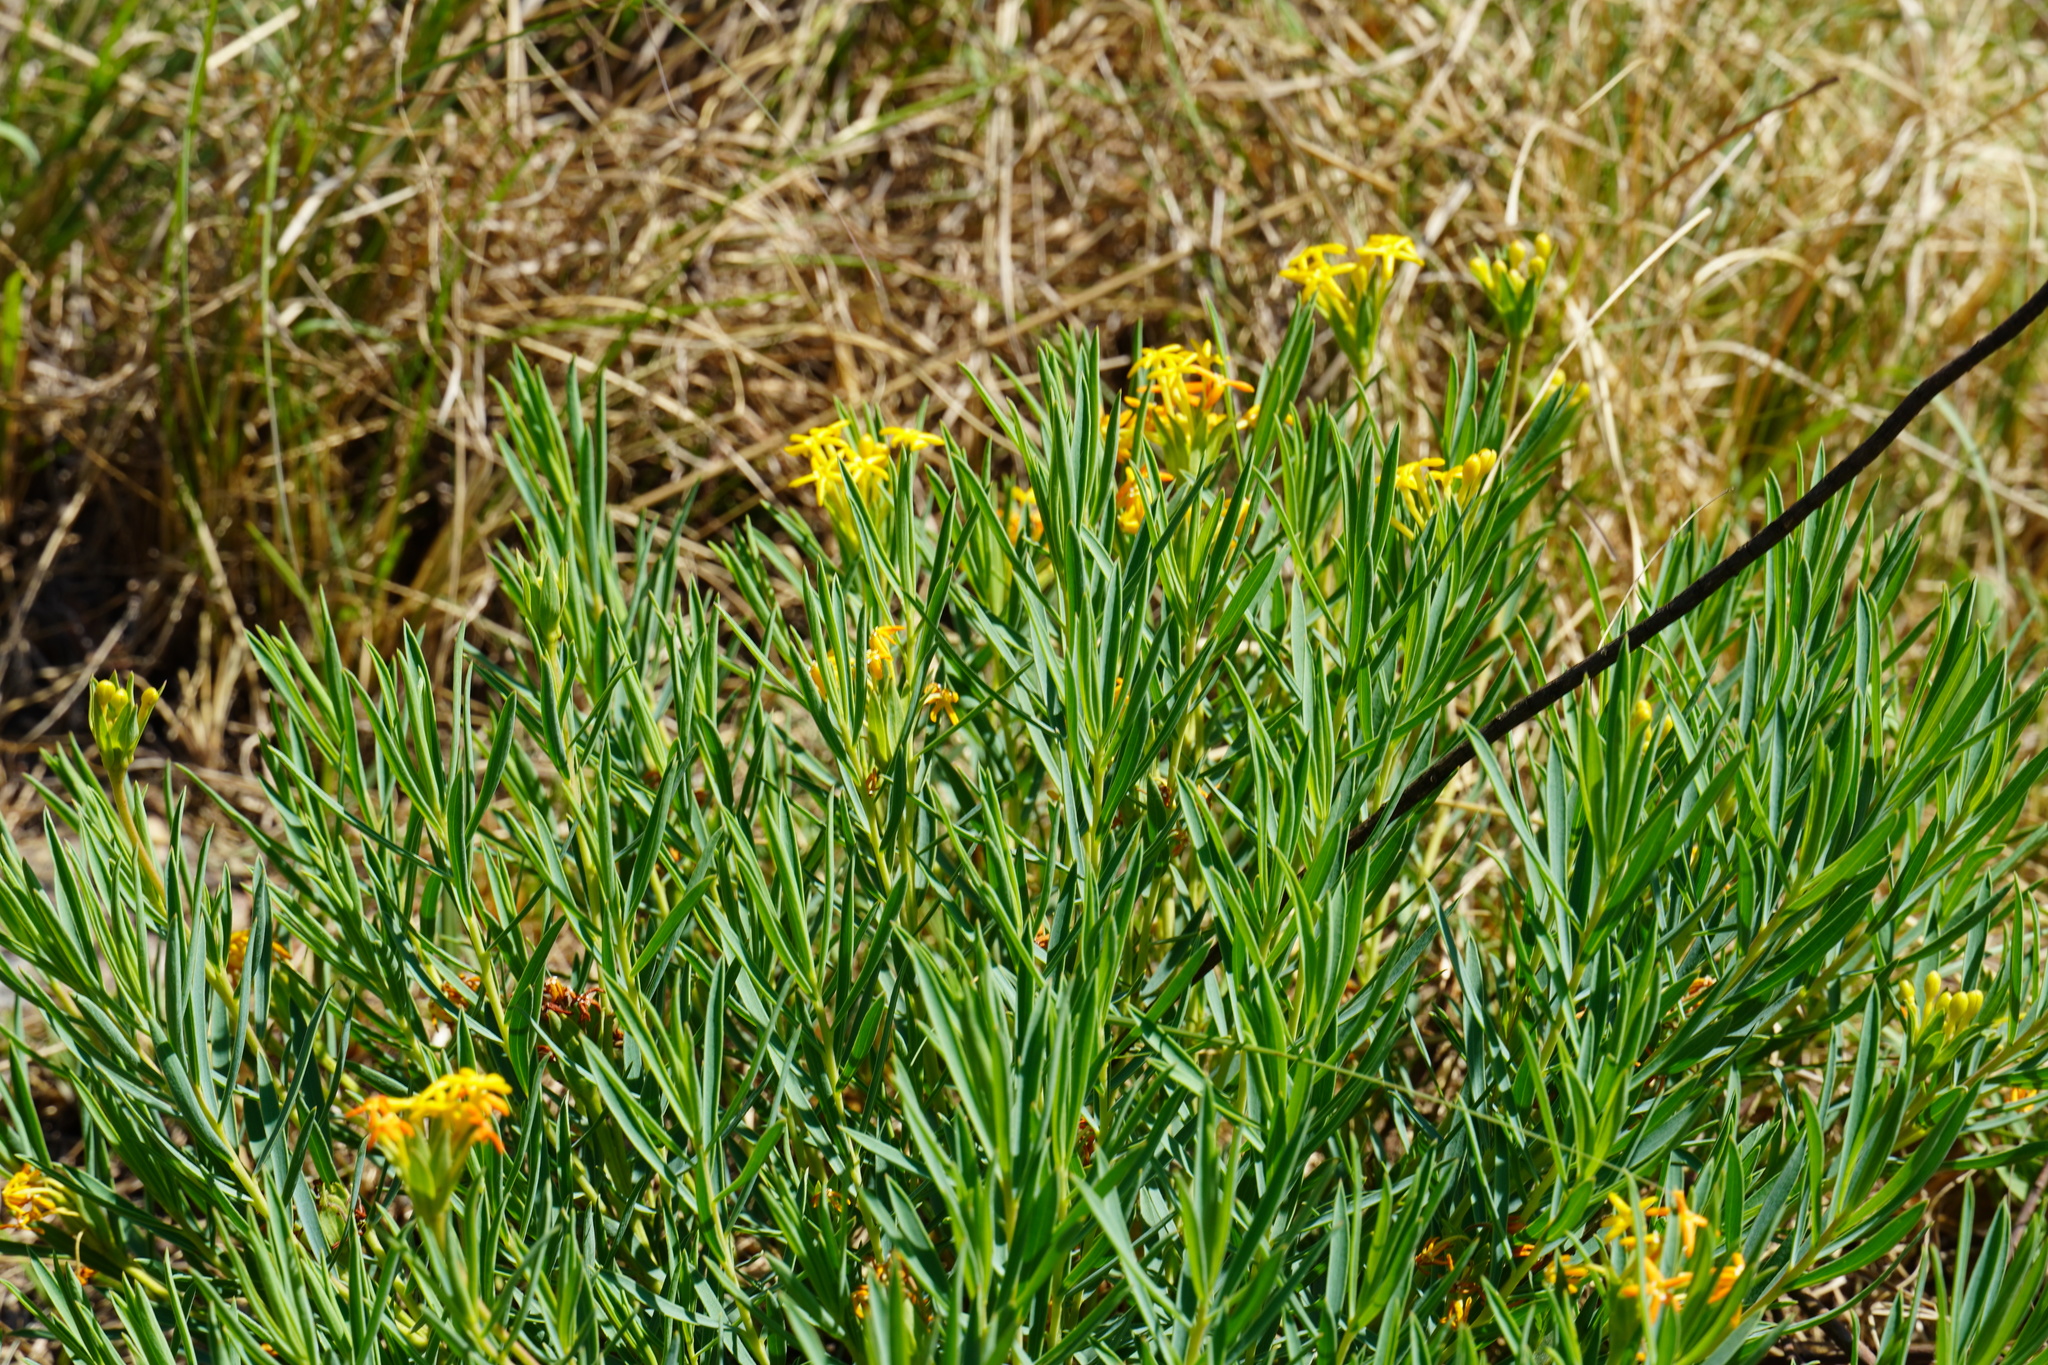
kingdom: Plantae
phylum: Tracheophyta
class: Magnoliopsida
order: Malvales
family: Thymelaeaceae
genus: Gnidia
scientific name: Gnidia capitata
